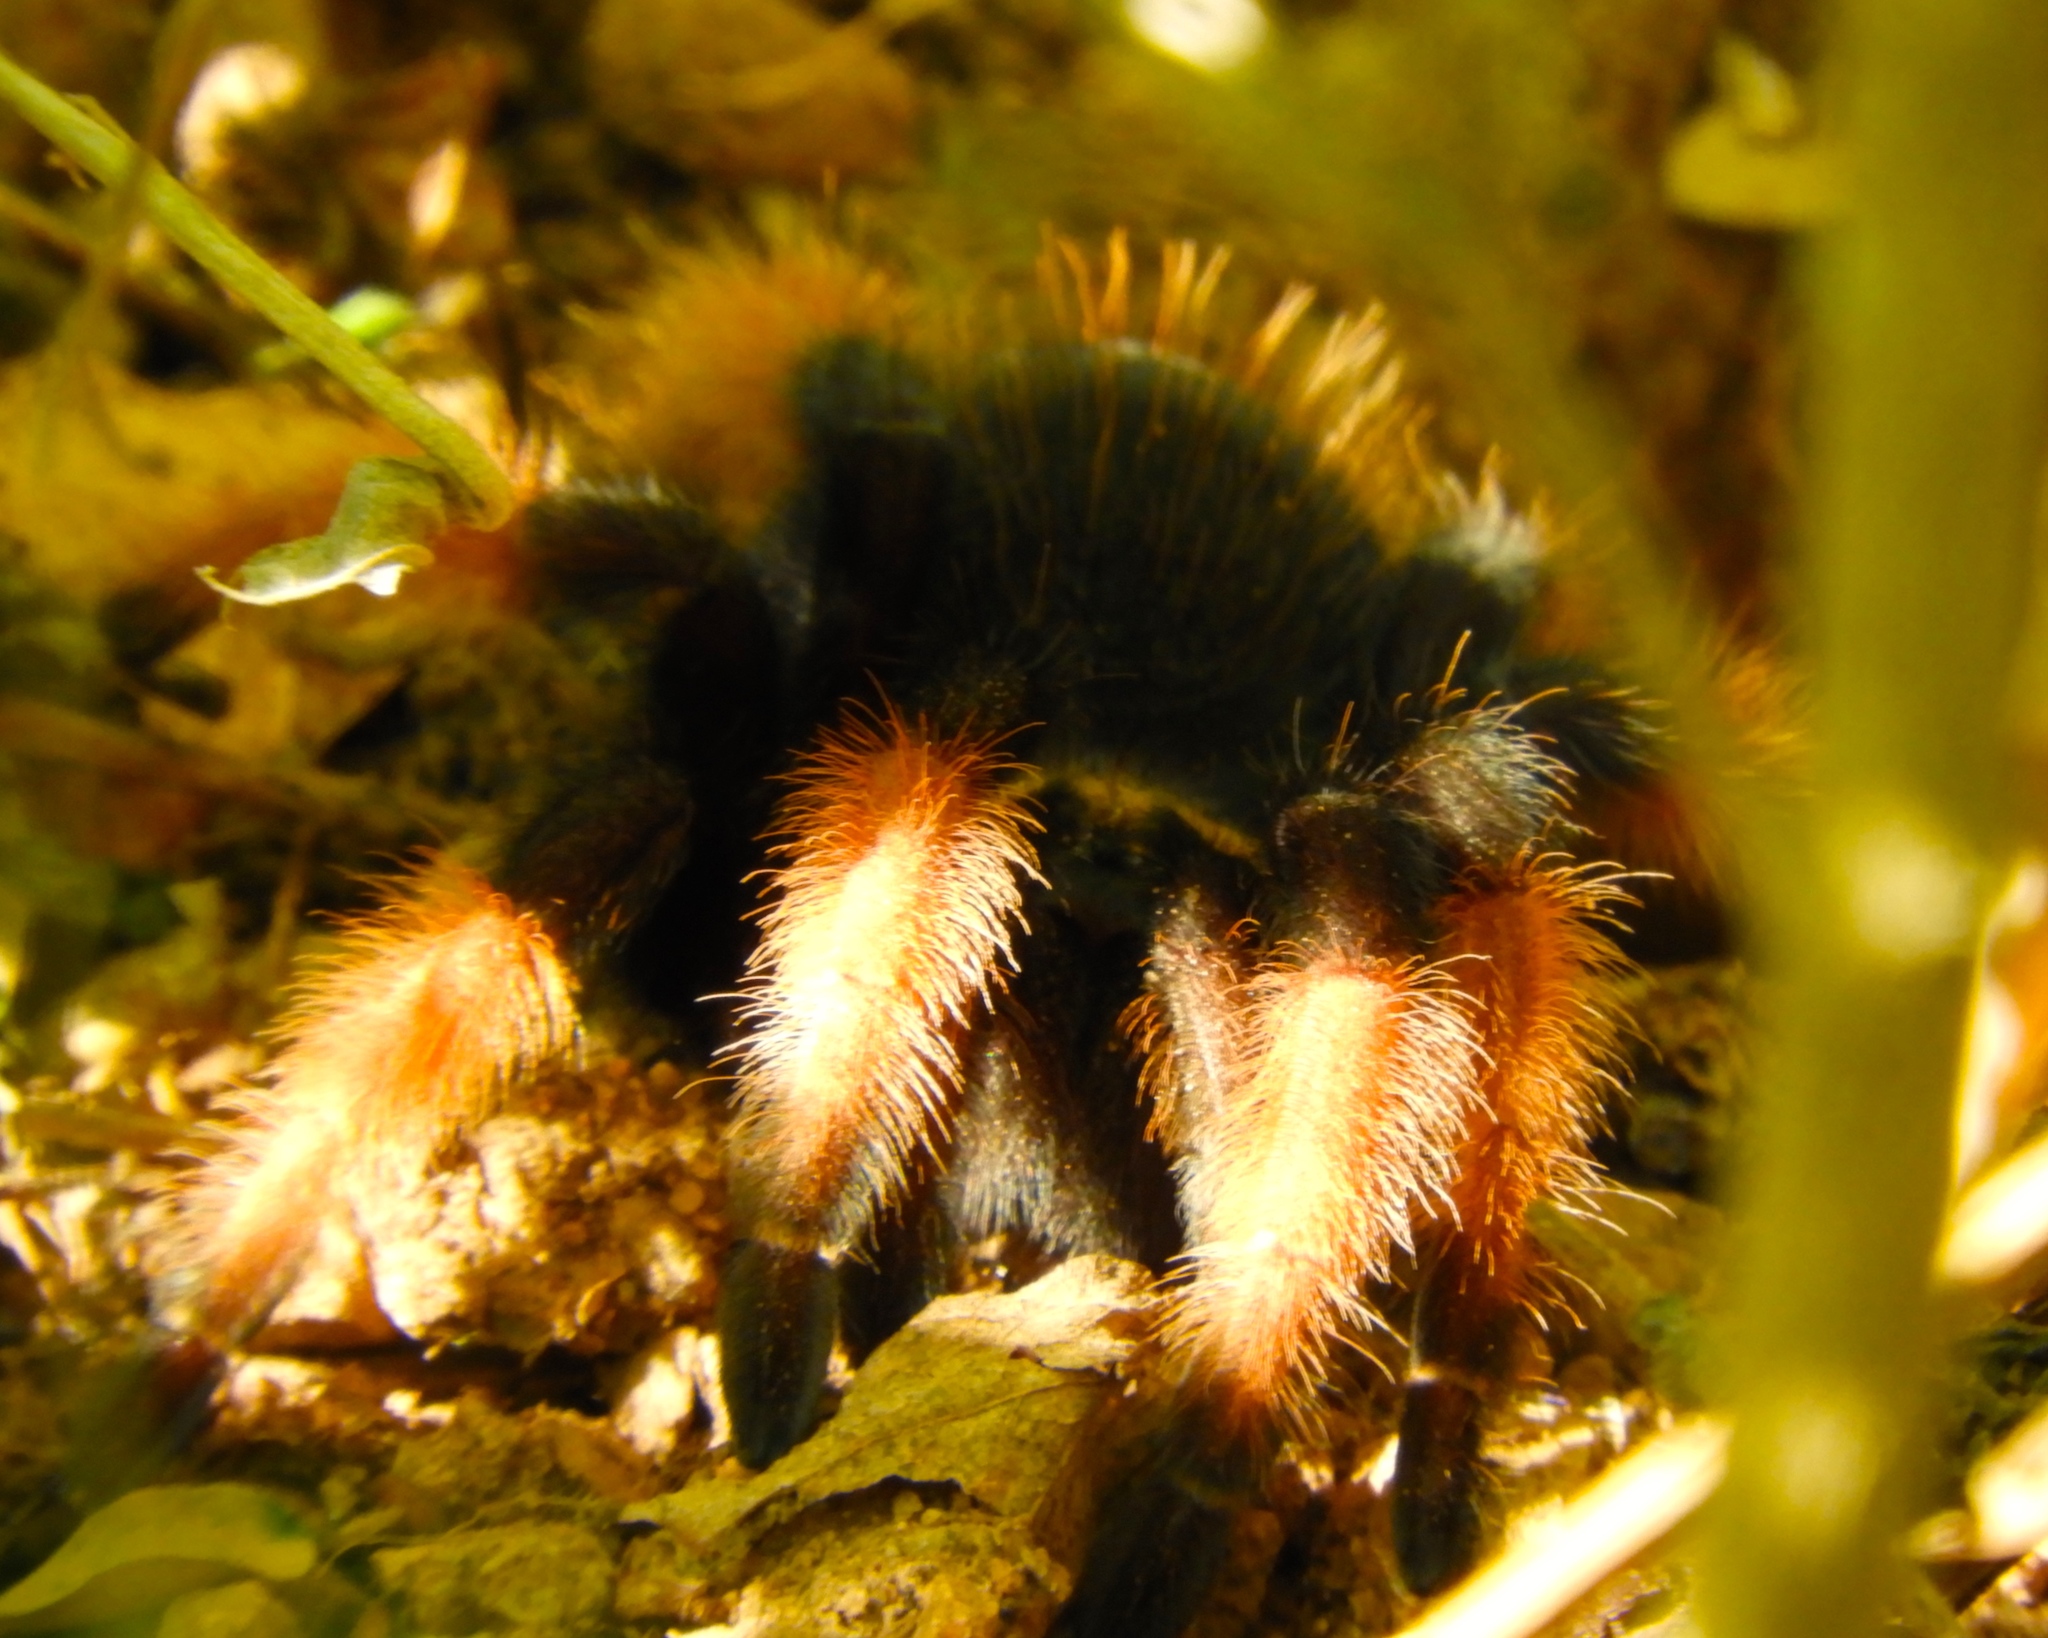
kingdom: Animalia
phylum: Arthropoda
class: Arachnida
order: Araneae
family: Theraphosidae
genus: Brachypelma
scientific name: Brachypelma emilia
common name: Mexican redleg
